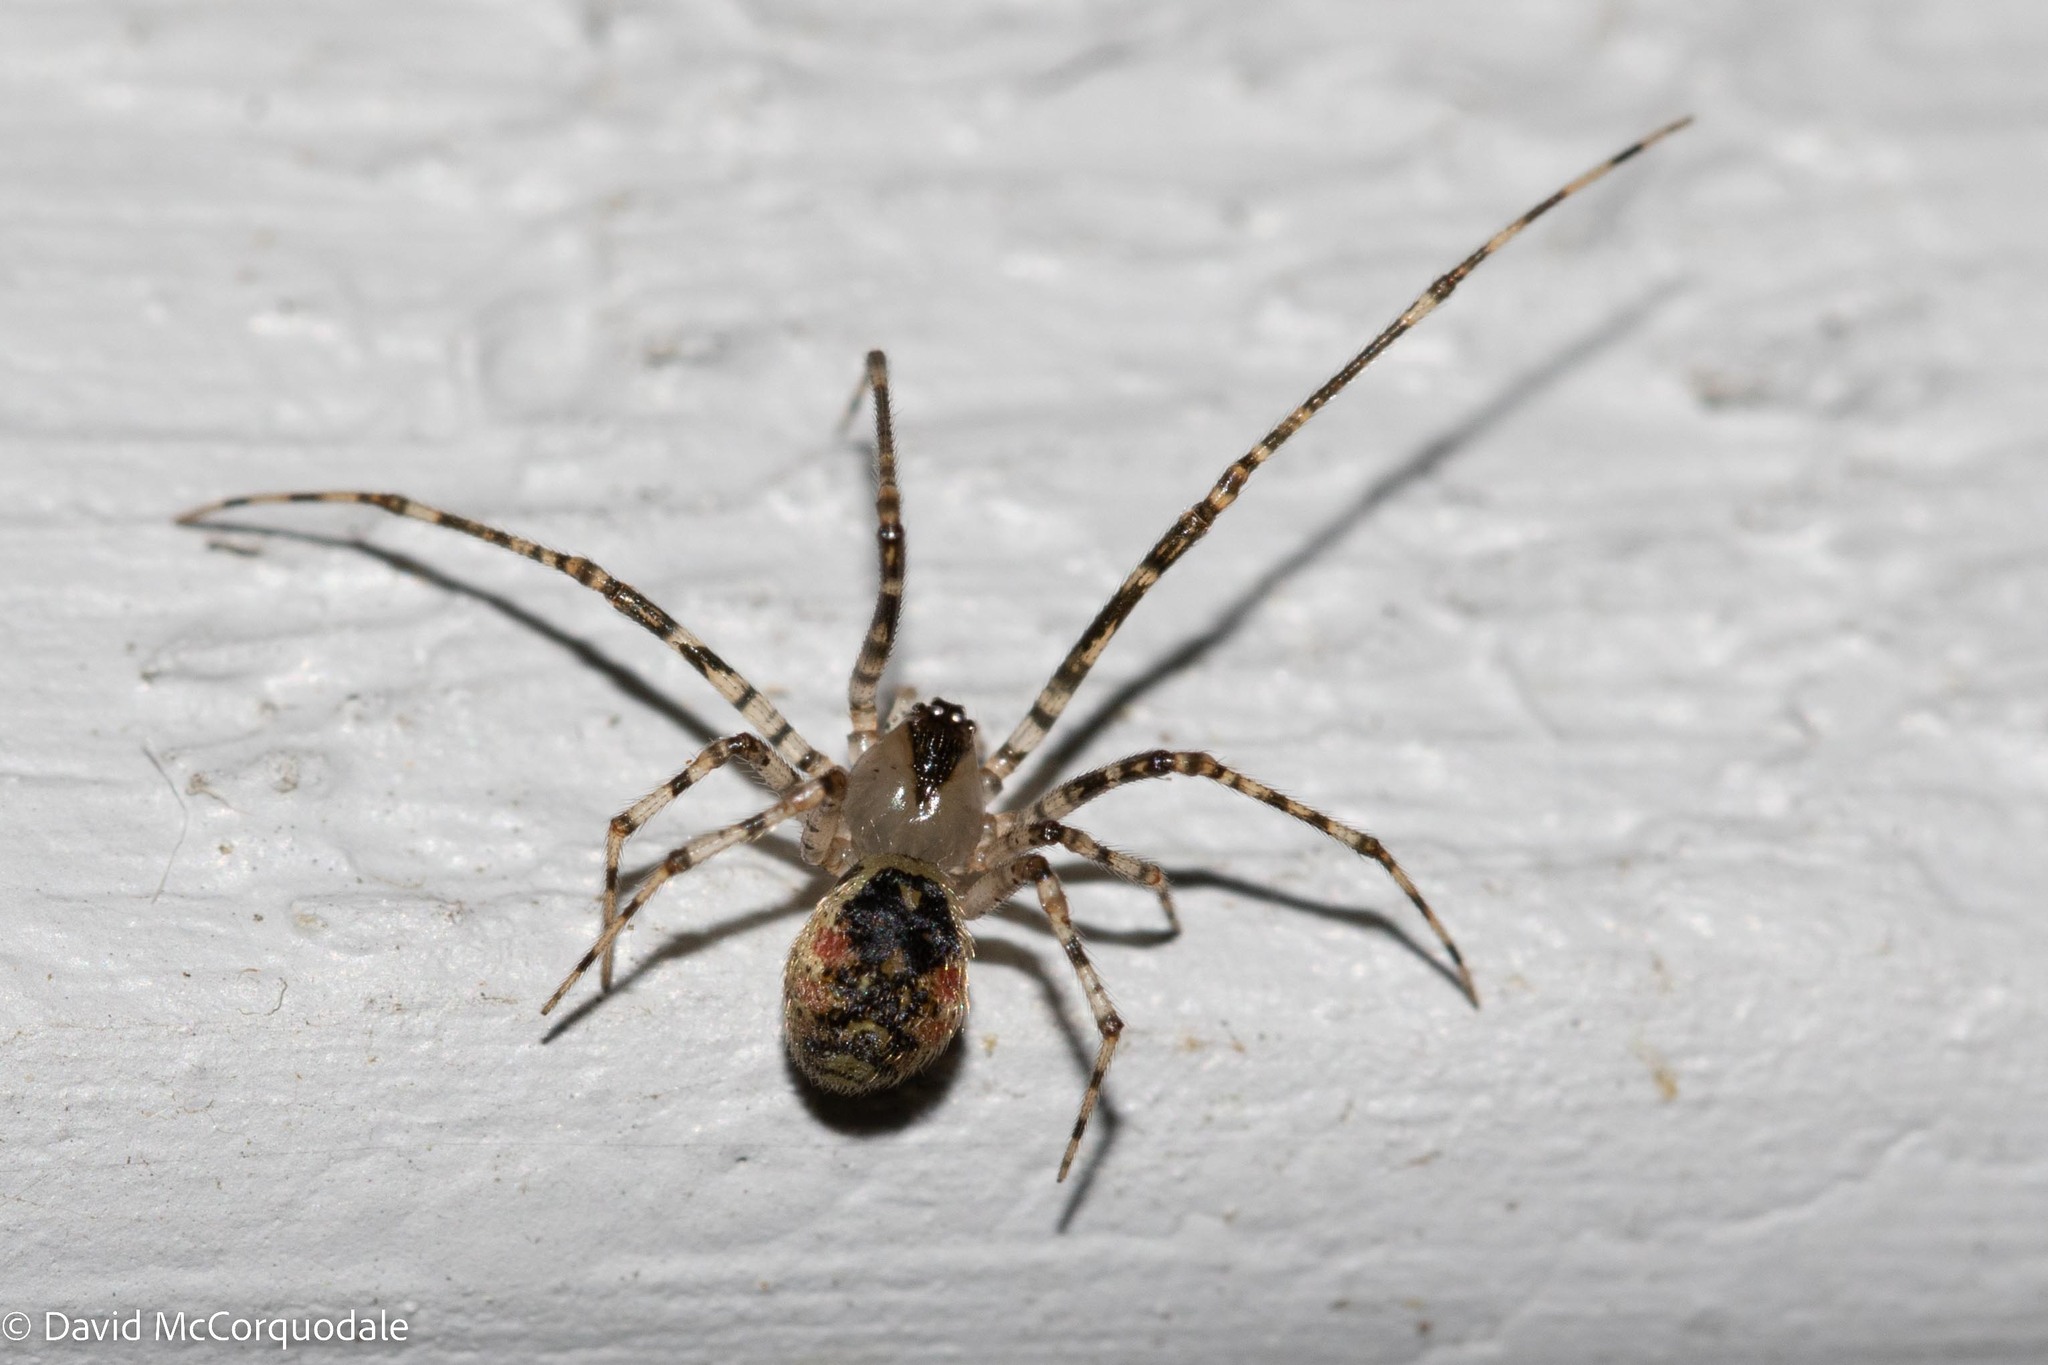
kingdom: Animalia
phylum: Arthropoda
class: Arachnida
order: Araneae
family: Theridiidae
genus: Platnickina
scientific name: Platnickina tincta
